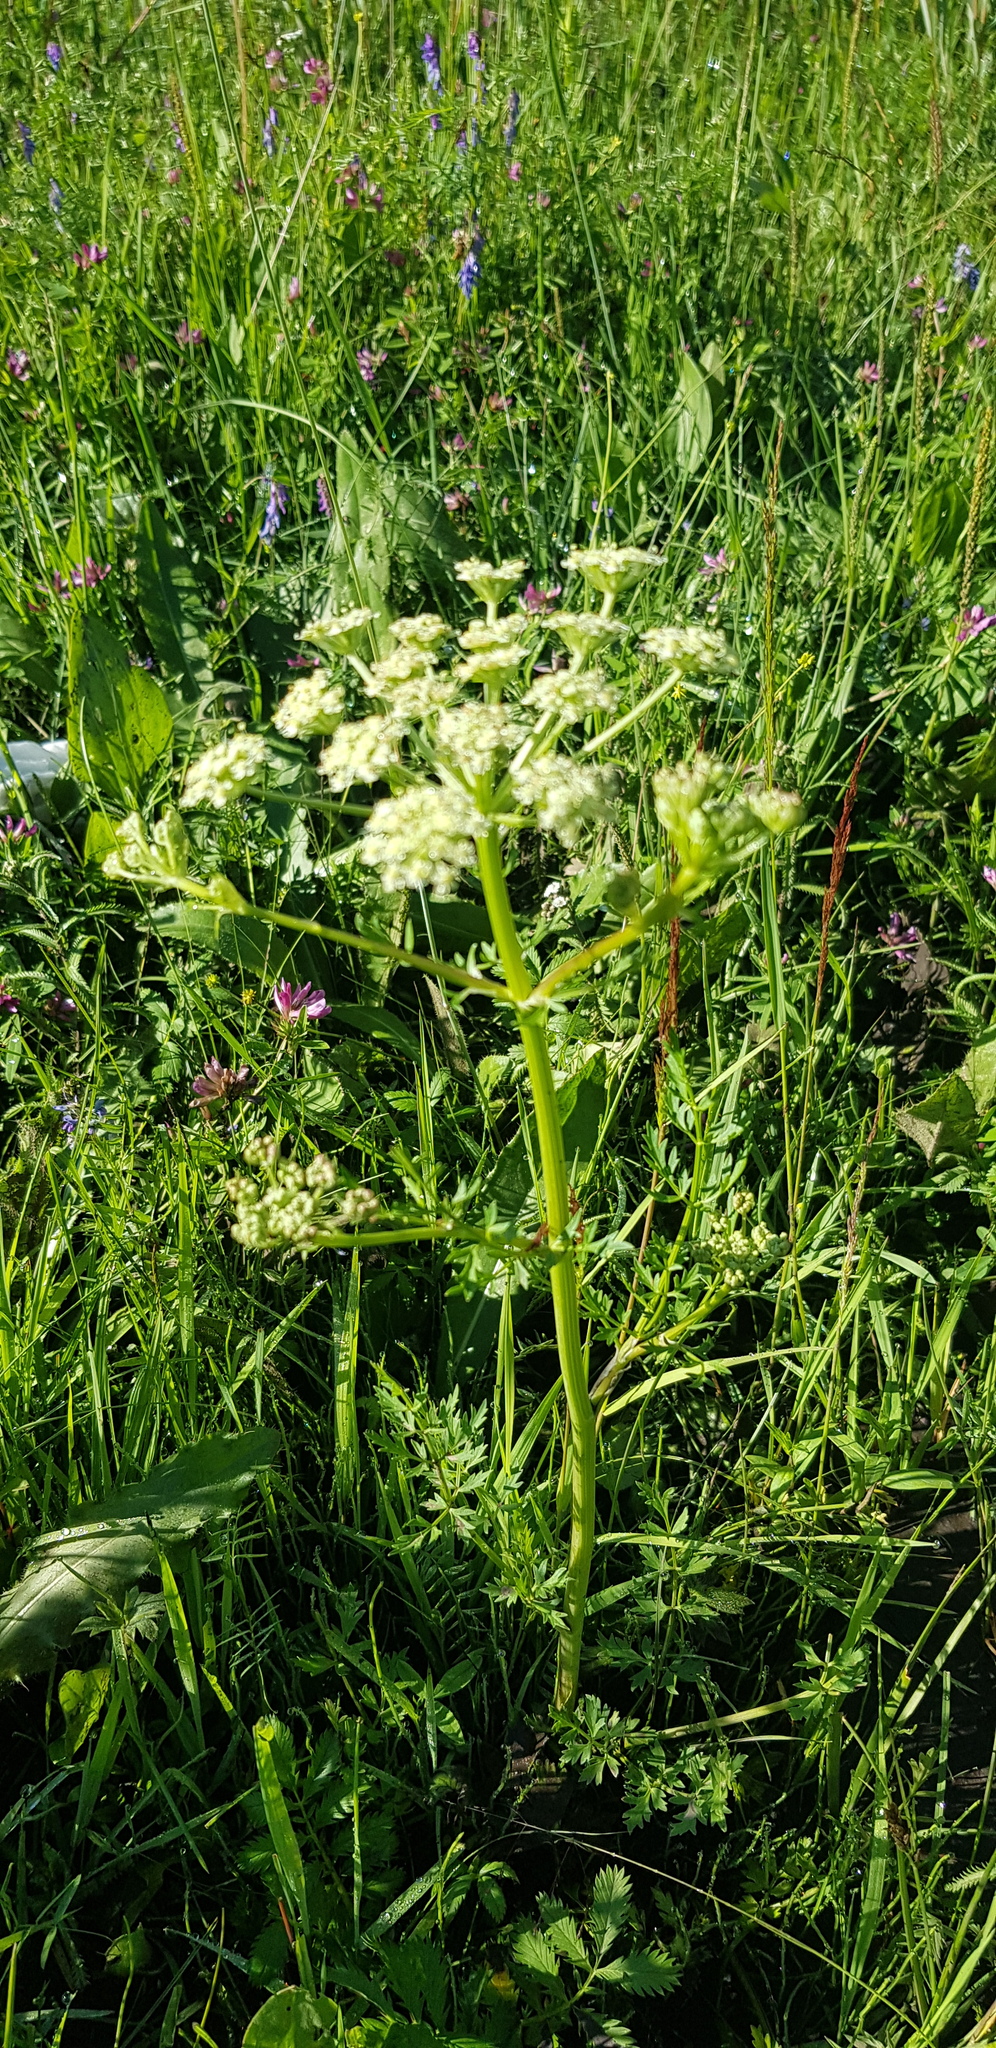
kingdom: Plantae
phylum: Tracheophyta
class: Magnoliopsida
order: Apiales
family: Apiaceae
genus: Pleurospermum
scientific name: Pleurospermum uralense
